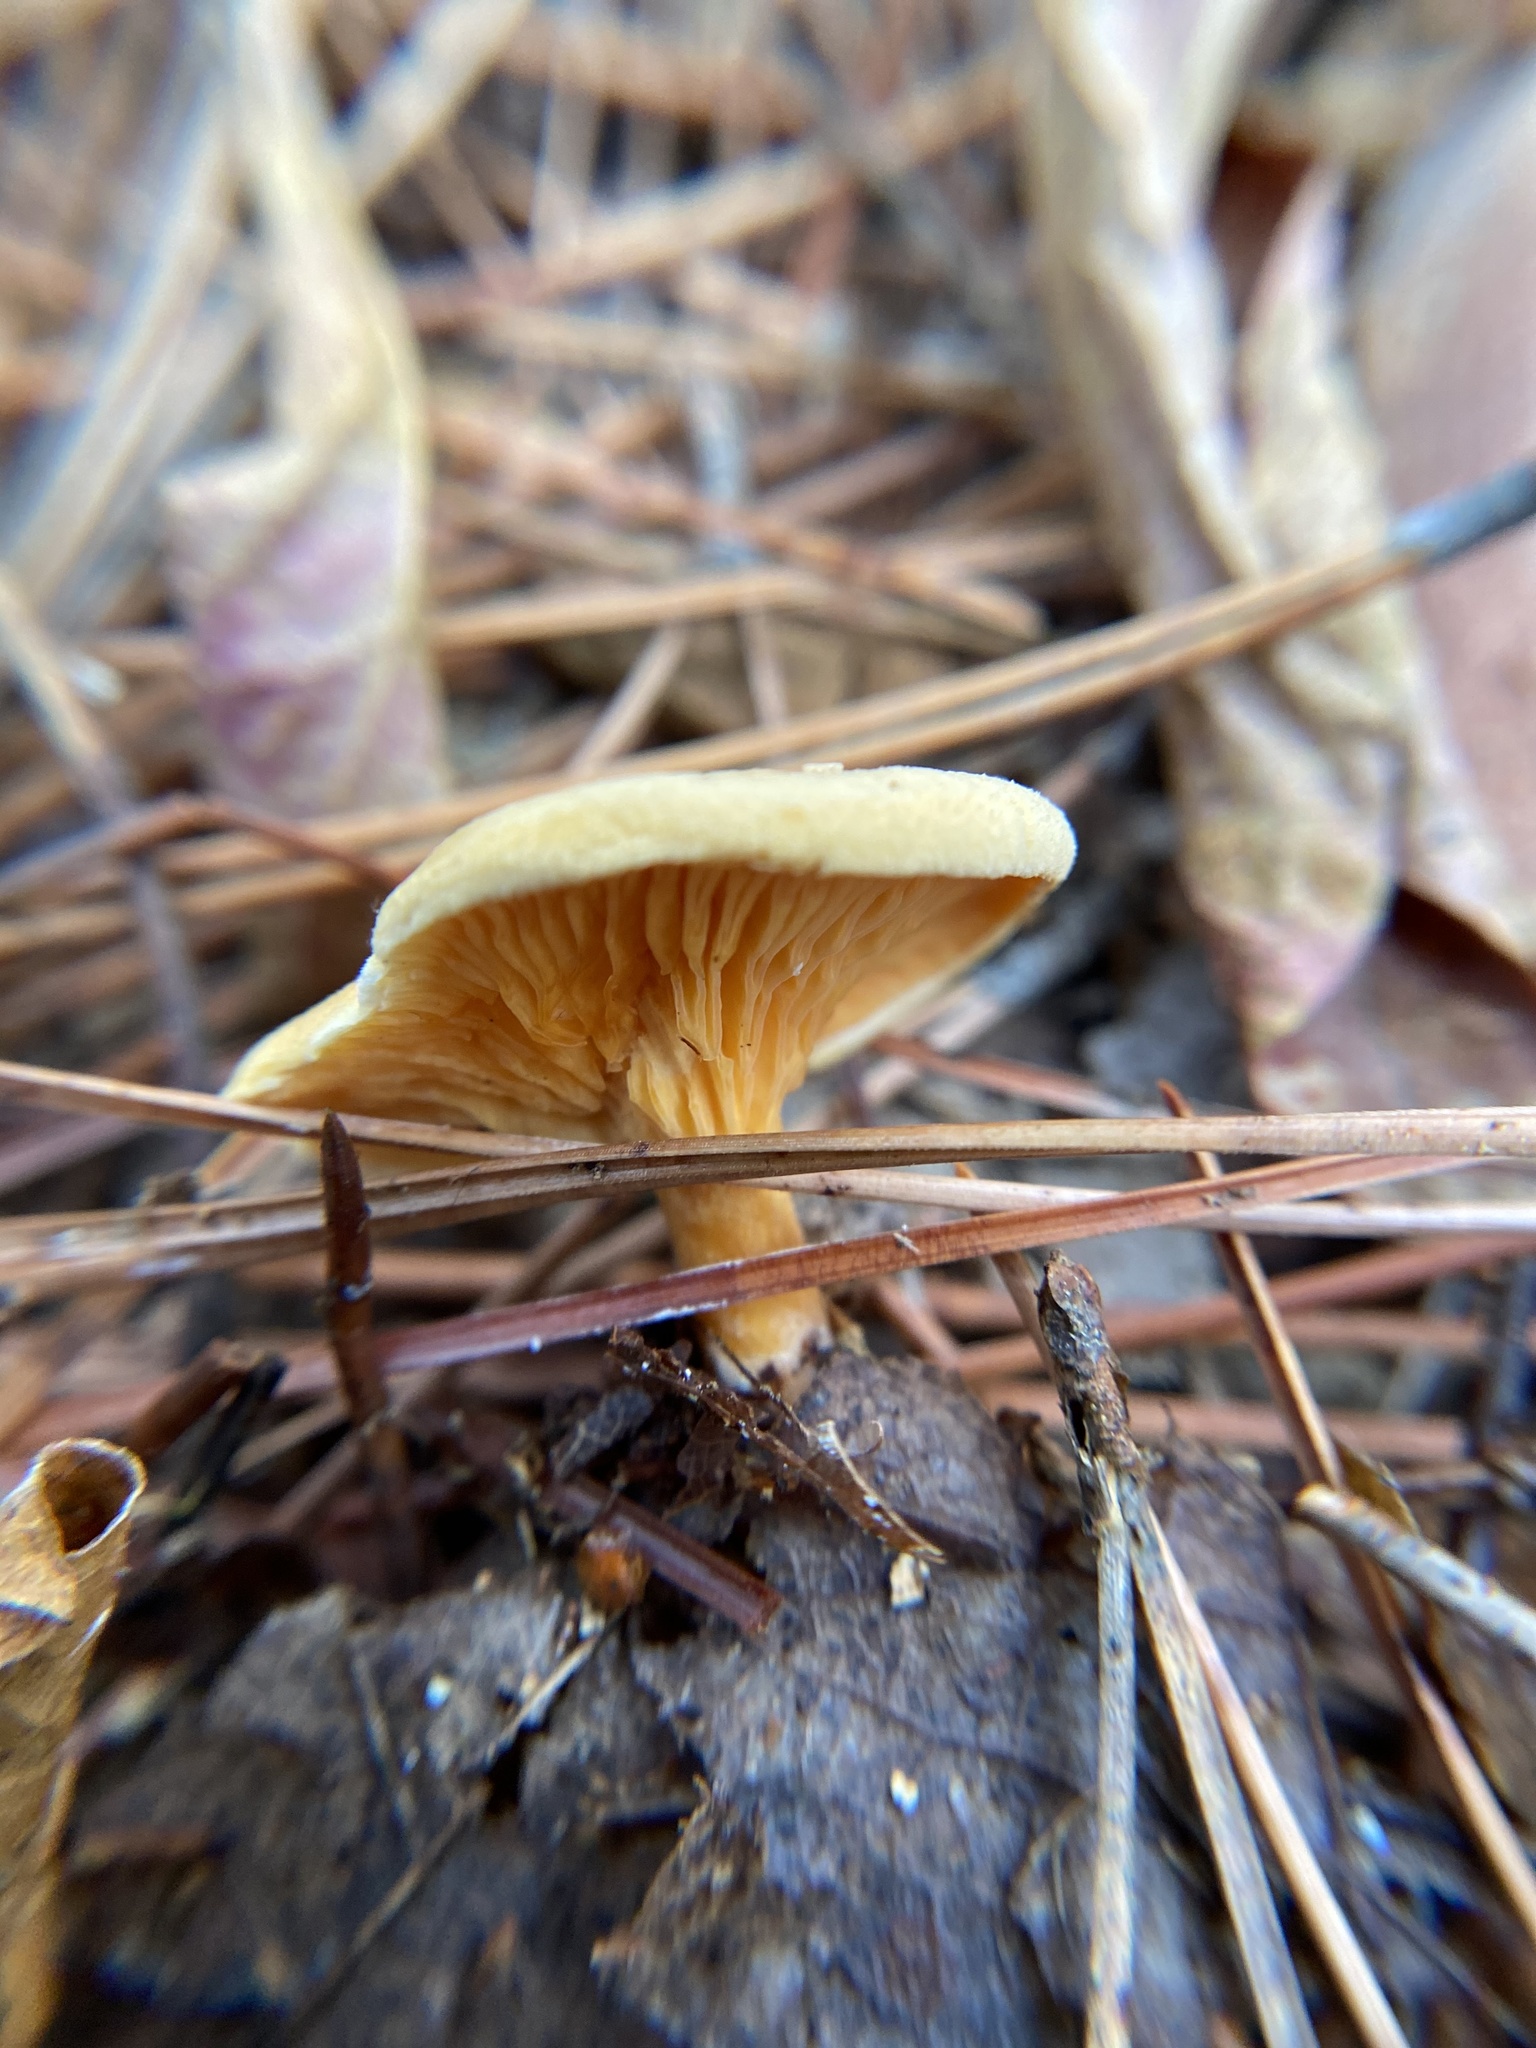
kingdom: Fungi
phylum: Basidiomycota
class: Agaricomycetes
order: Boletales
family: Hygrophoropsidaceae
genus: Hygrophoropsis
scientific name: Hygrophoropsis aurantiaca
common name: False chanterelle
